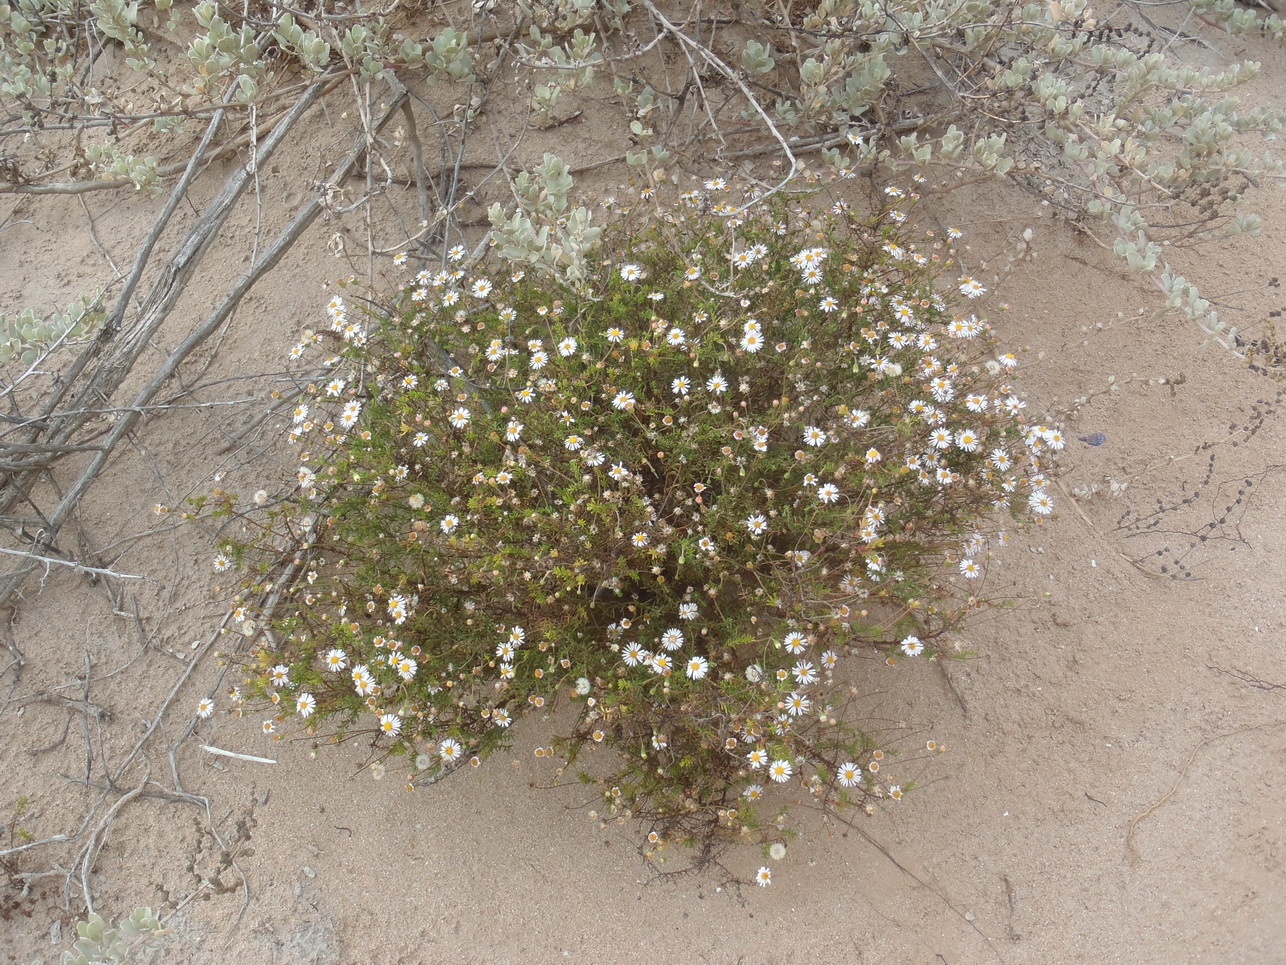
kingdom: Plantae
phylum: Tracheophyta
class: Magnoliopsida
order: Asterales
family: Asteraceae
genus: Felicia
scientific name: Felicia hyssopifolia
